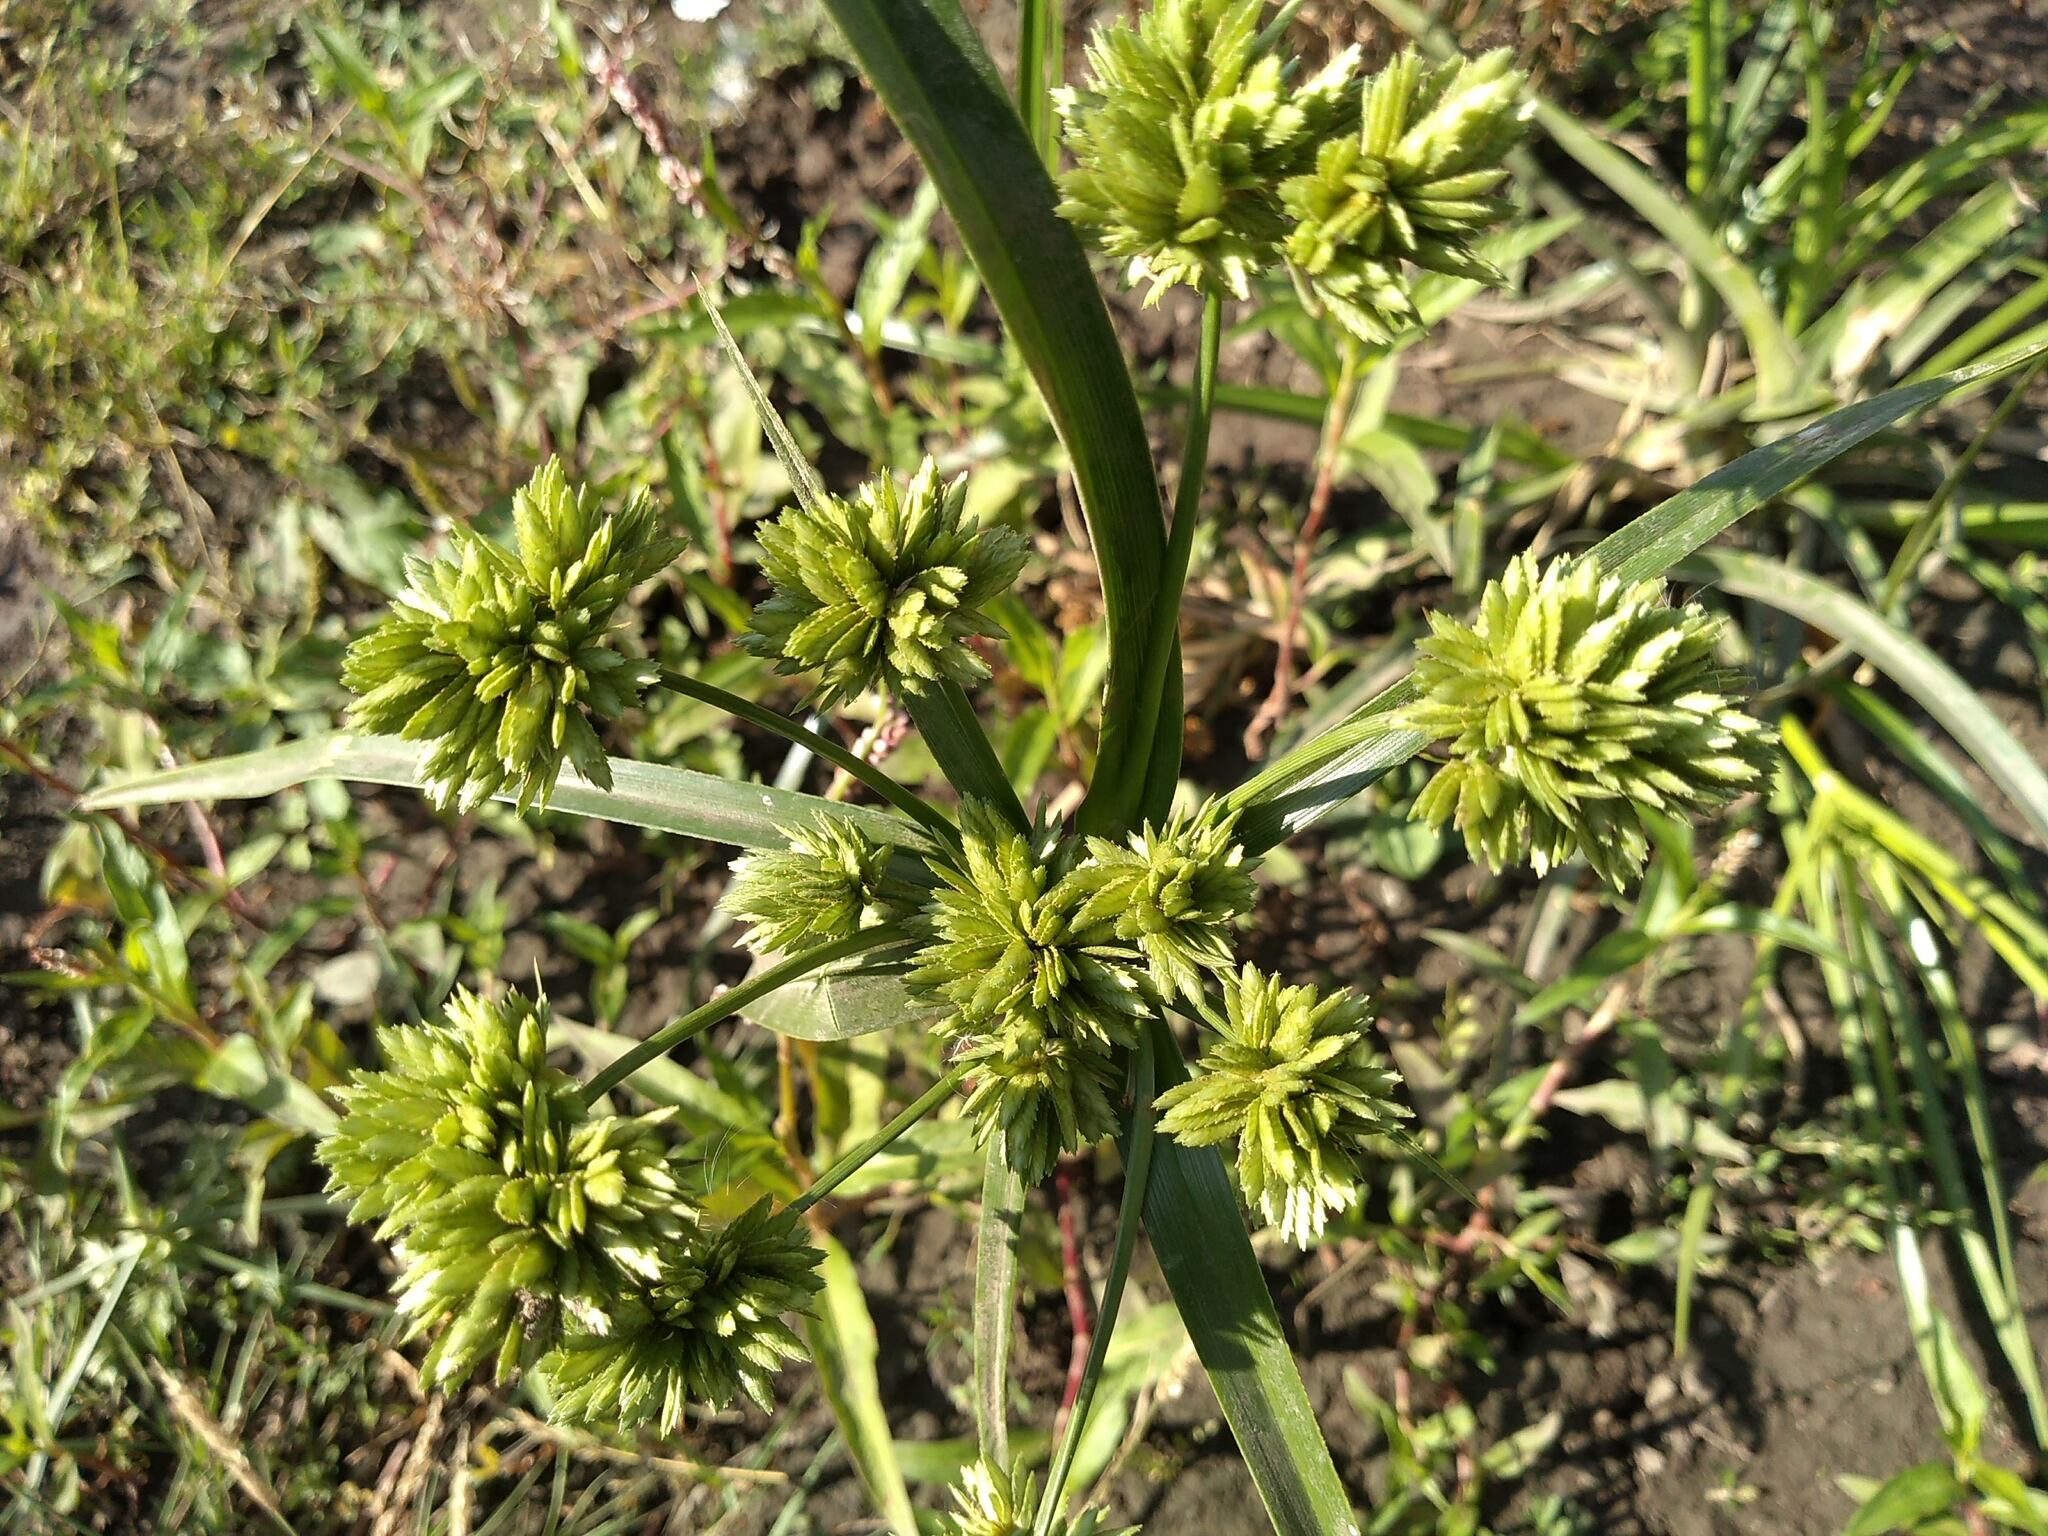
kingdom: Plantae
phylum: Tracheophyta
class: Liliopsida
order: Poales
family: Cyperaceae
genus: Cyperus
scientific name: Cyperus eragrostis
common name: Tall flatsedge
